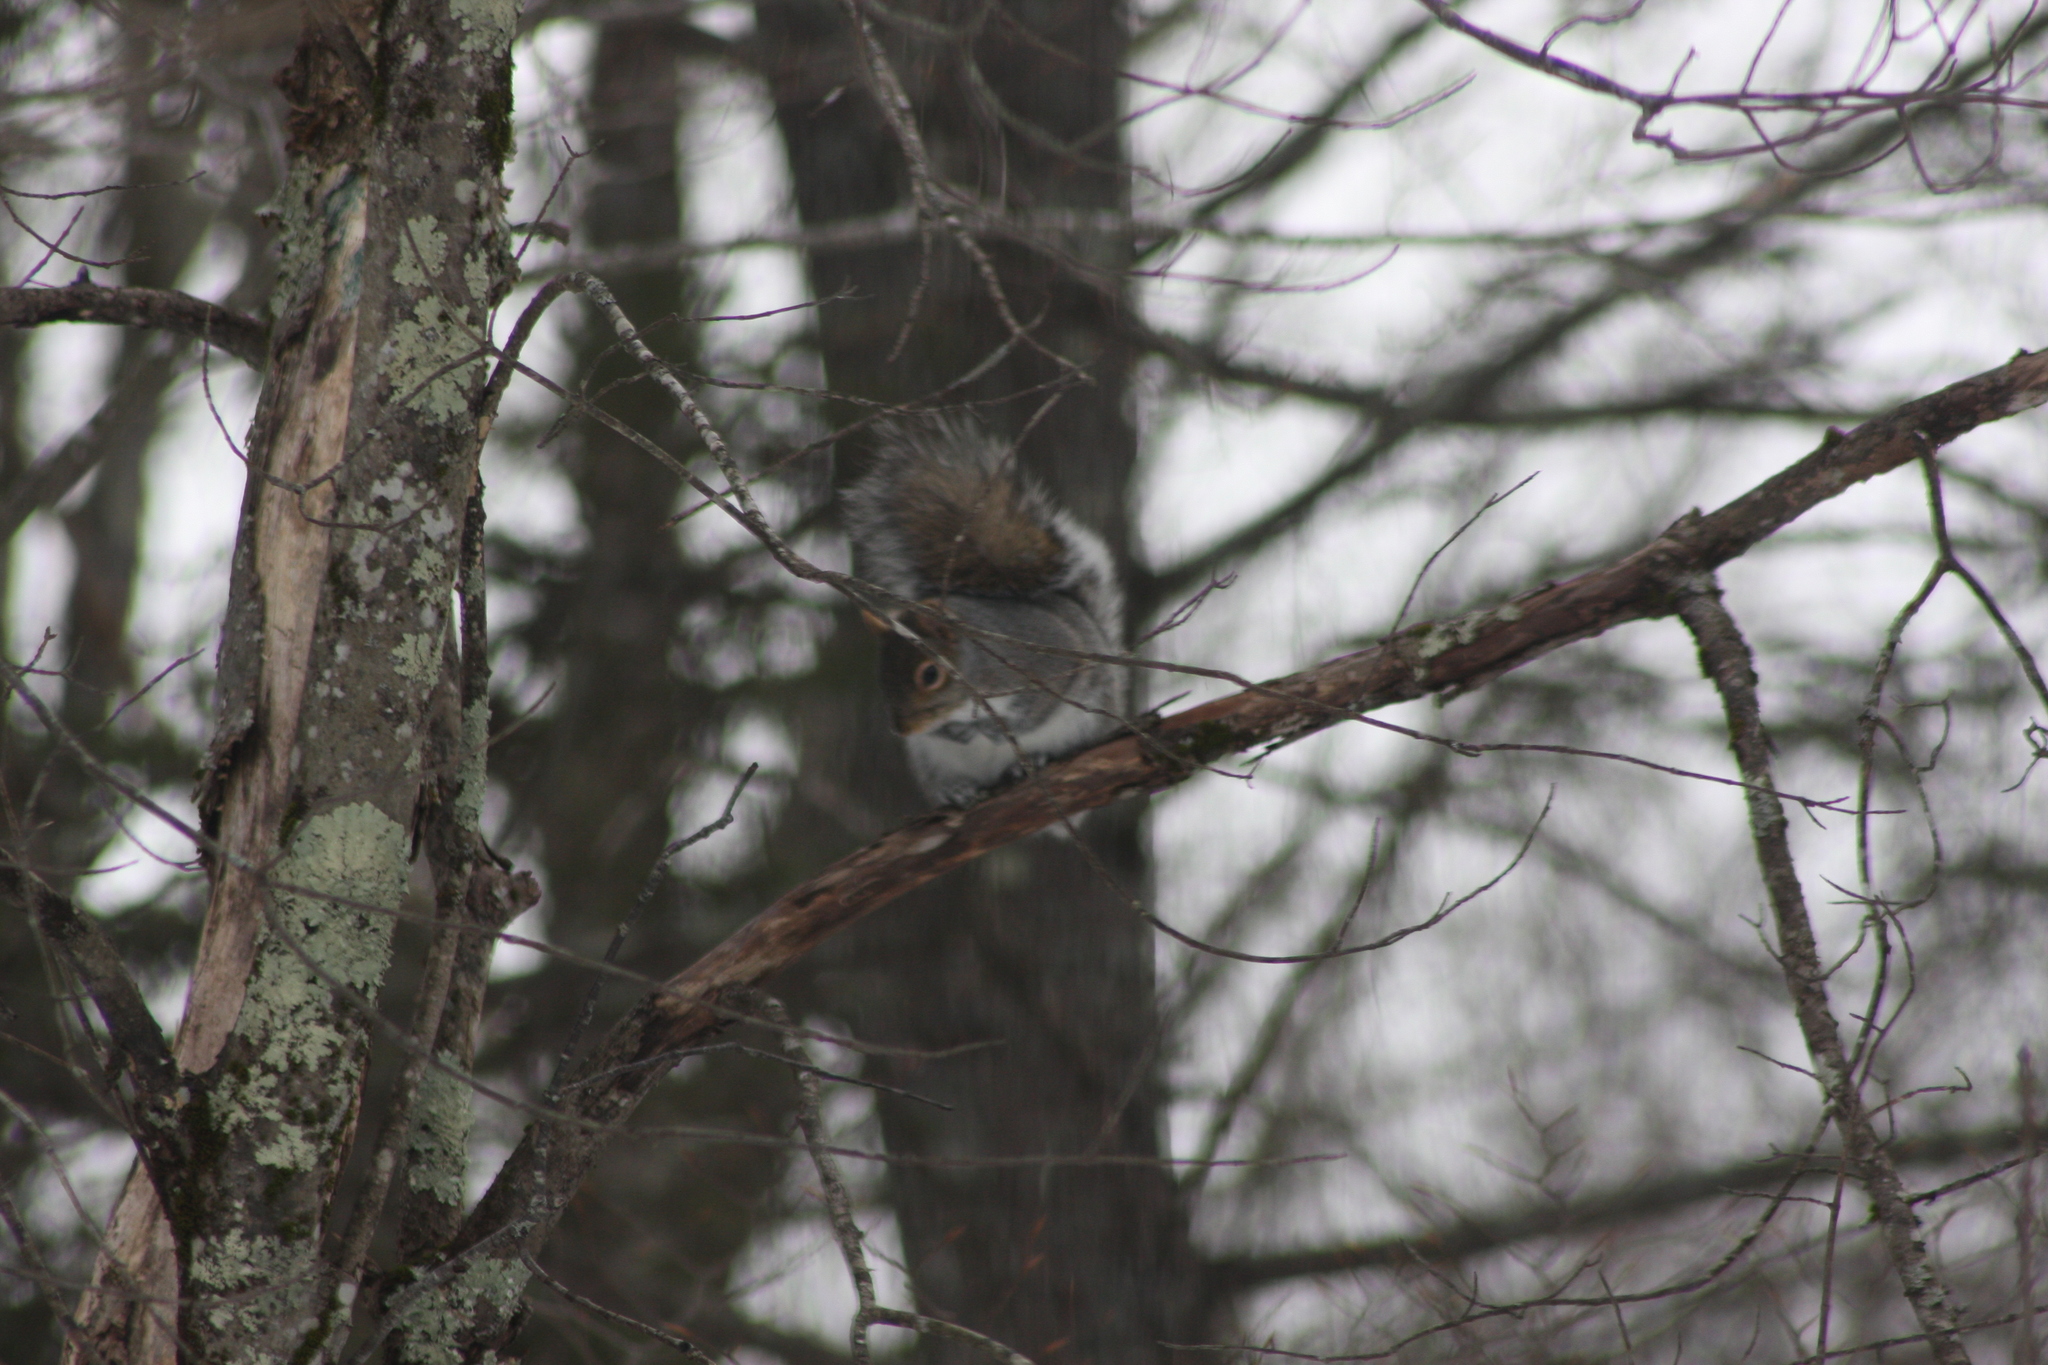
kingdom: Animalia
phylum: Chordata
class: Mammalia
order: Rodentia
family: Sciuridae
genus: Sciurus
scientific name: Sciurus carolinensis
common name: Eastern gray squirrel
